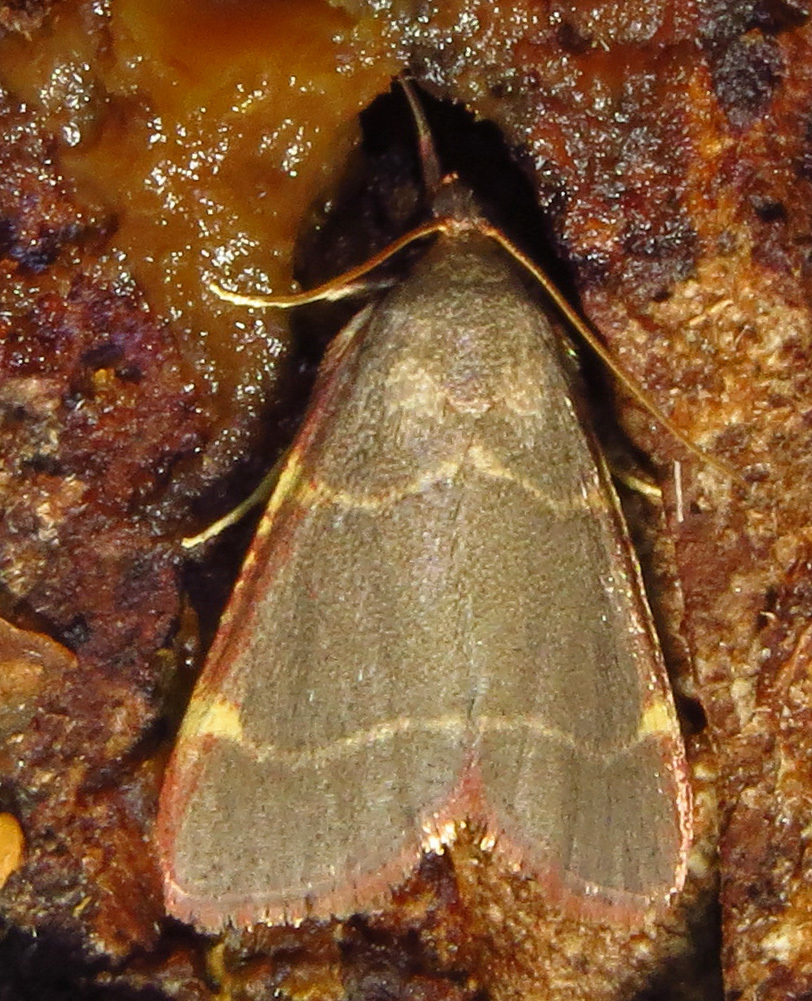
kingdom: Animalia
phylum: Arthropoda
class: Insecta
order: Lepidoptera
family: Pyralidae
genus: Hypsopygia
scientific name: Hypsopygia binodulalis
